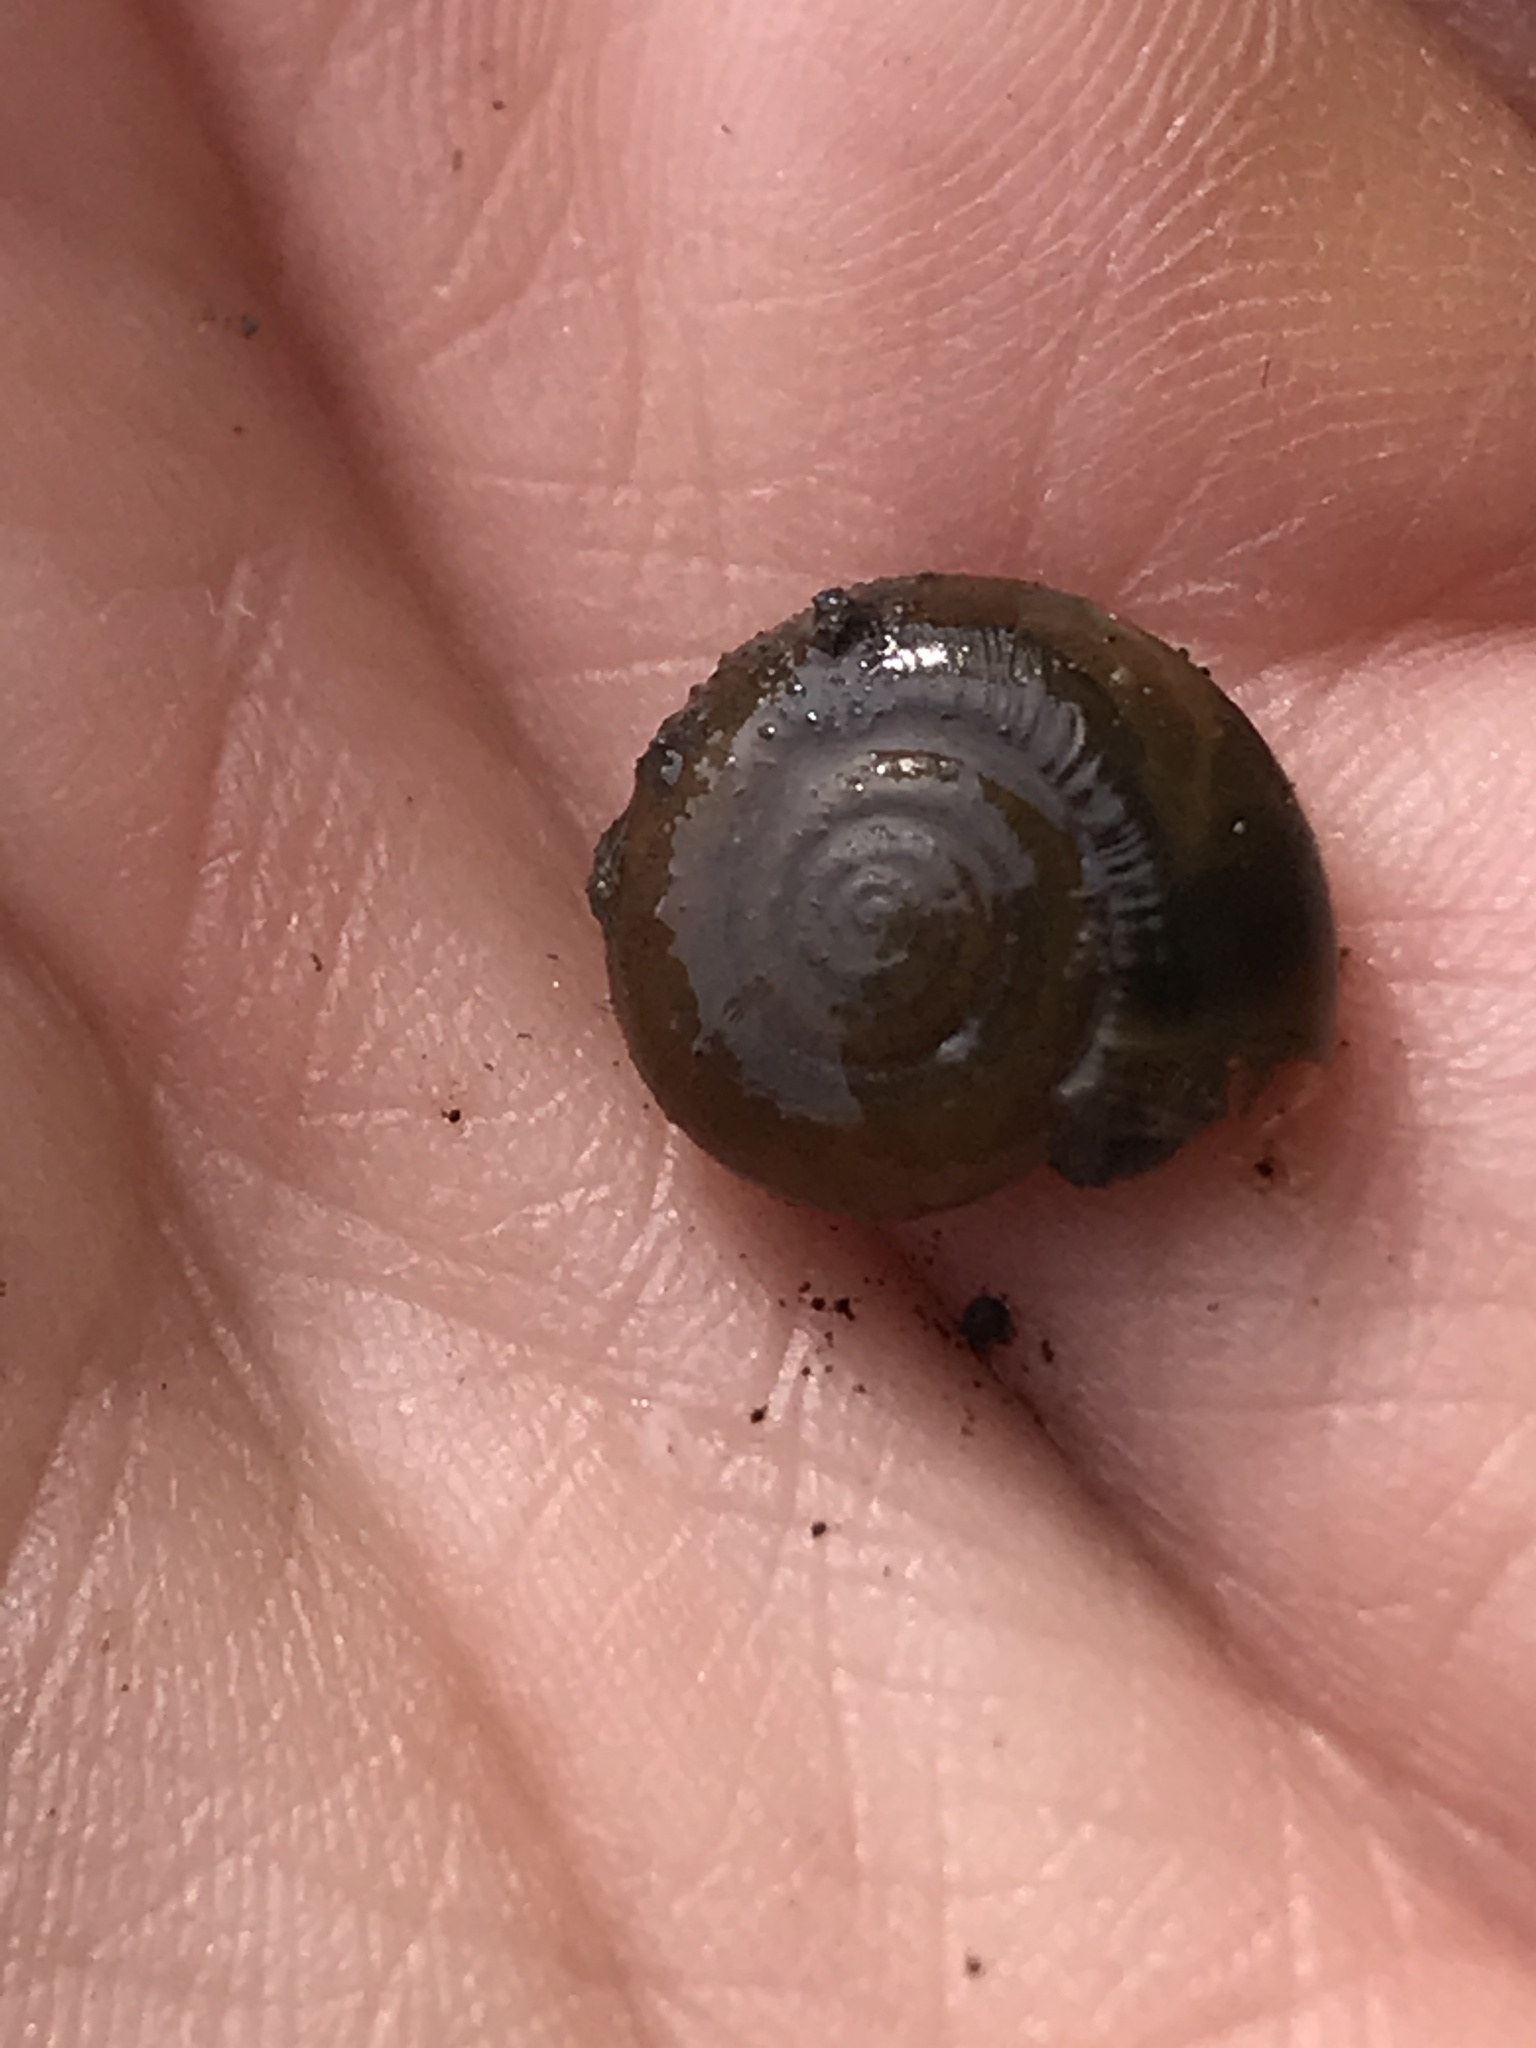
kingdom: Animalia
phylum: Mollusca
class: Gastropoda
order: Stylommatophora
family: Oxychilidae
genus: Oxychilus
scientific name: Oxychilus draparnaudi
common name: Draparnaud's glass snail
